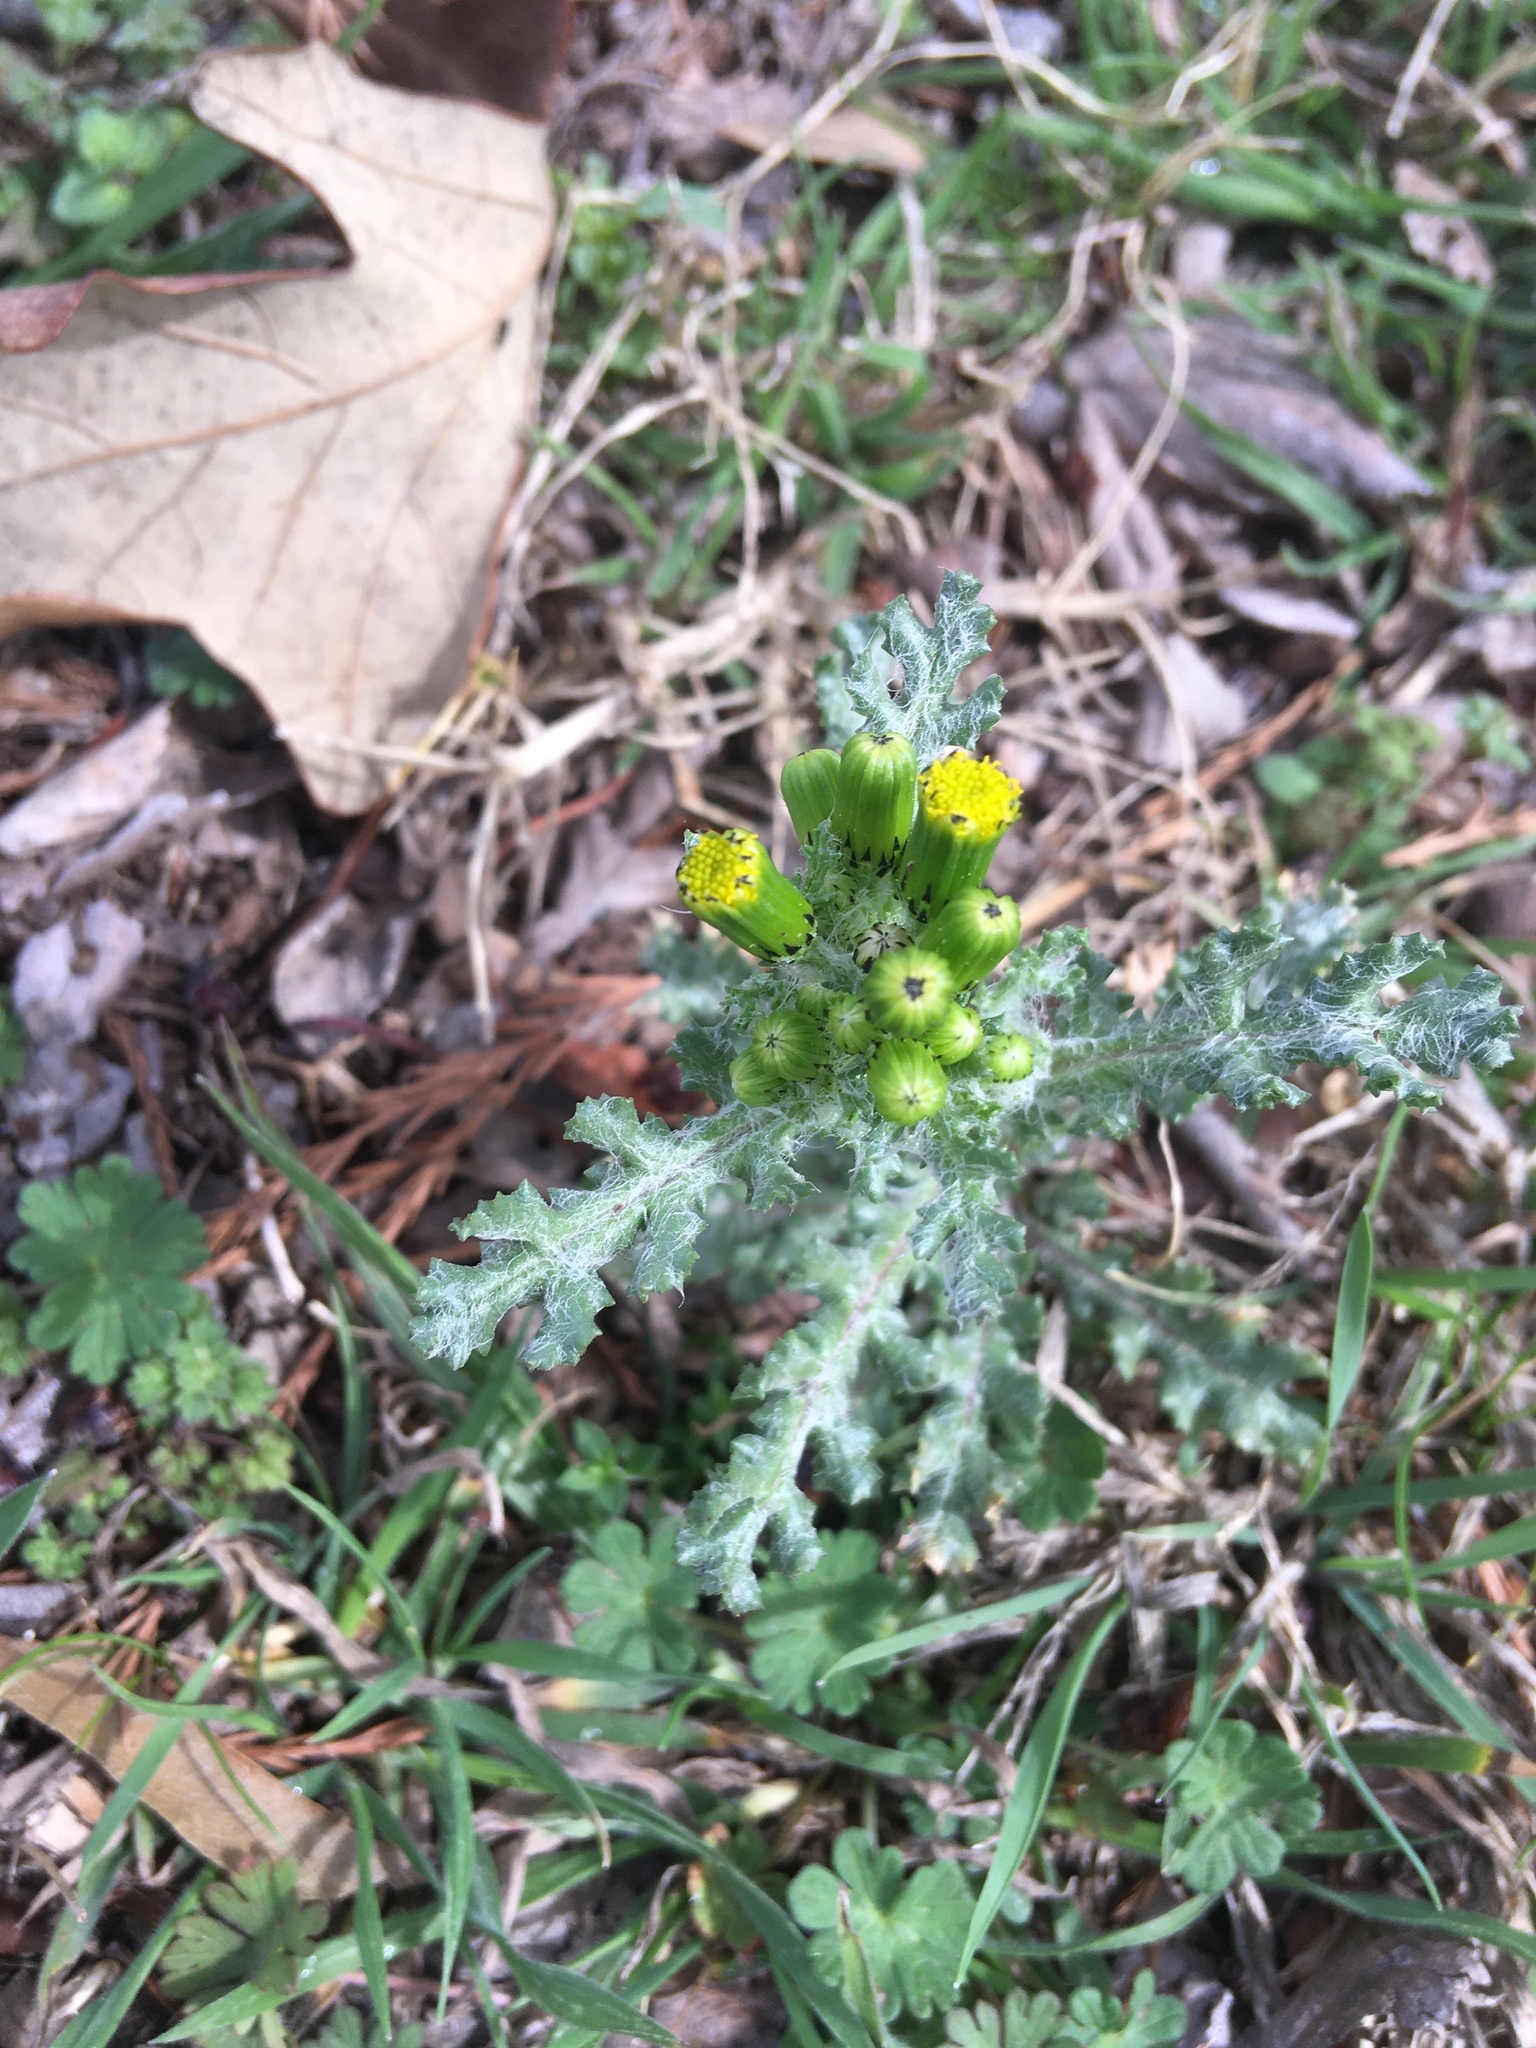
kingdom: Plantae
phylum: Tracheophyta
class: Magnoliopsida
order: Asterales
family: Asteraceae
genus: Senecio
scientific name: Senecio vulgaris
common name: Old-man-in-the-spring
